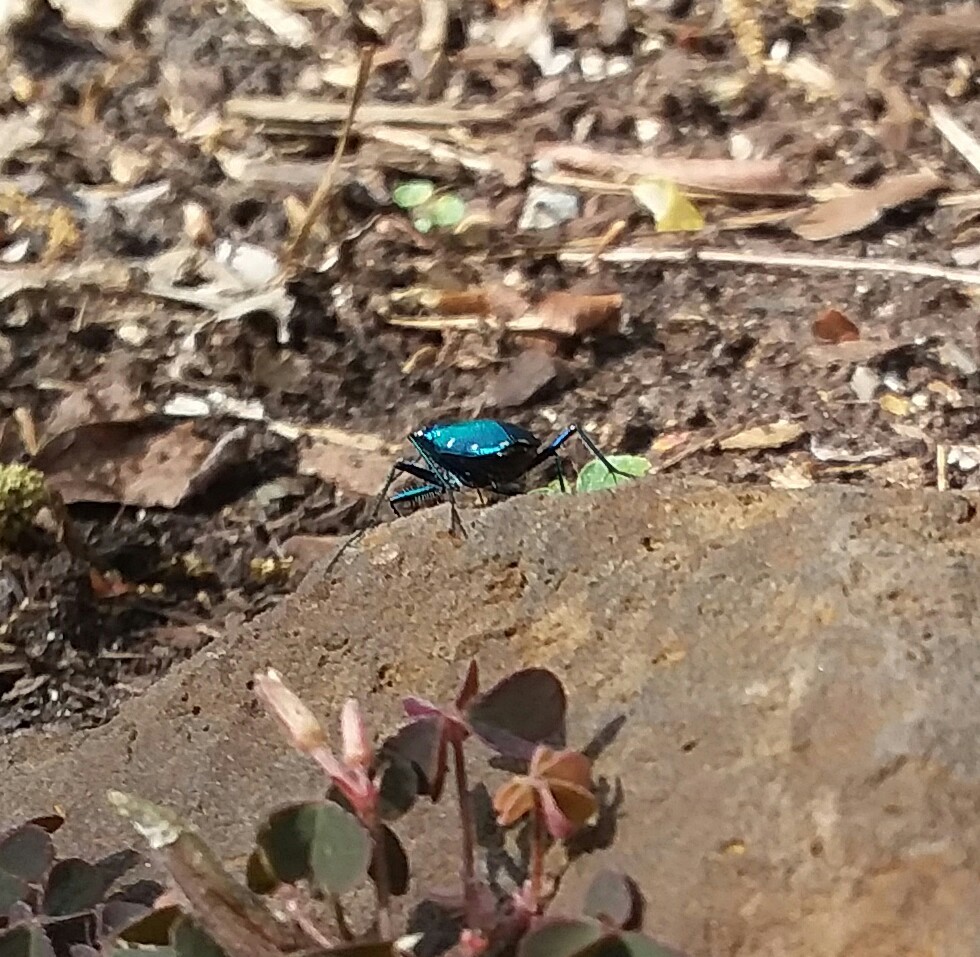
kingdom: Animalia
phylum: Arthropoda
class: Insecta
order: Coleoptera
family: Carabidae
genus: Cicindela
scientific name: Cicindela sexguttata
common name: Six-spotted tiger beetle
